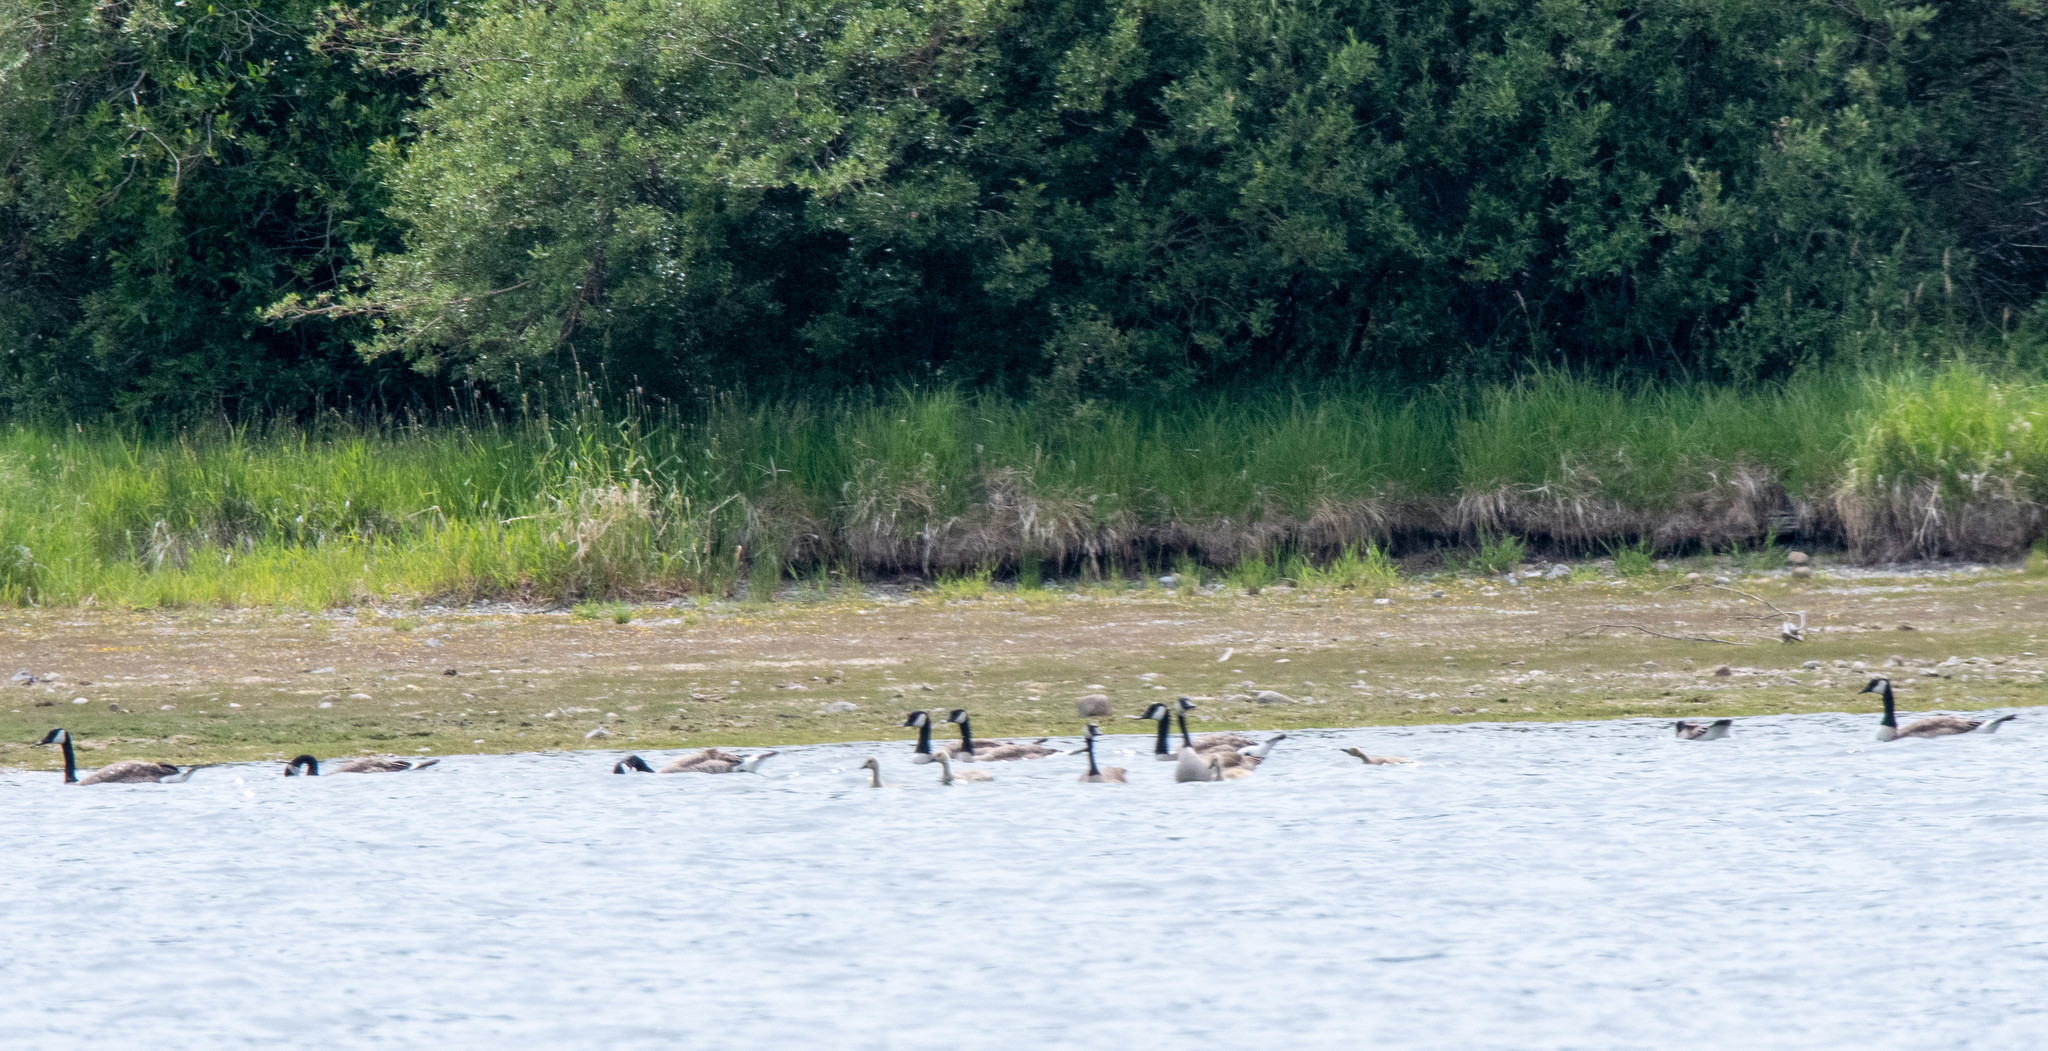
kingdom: Animalia
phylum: Chordata
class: Aves
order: Anseriformes
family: Anatidae
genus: Branta
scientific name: Branta canadensis
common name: Canada goose
